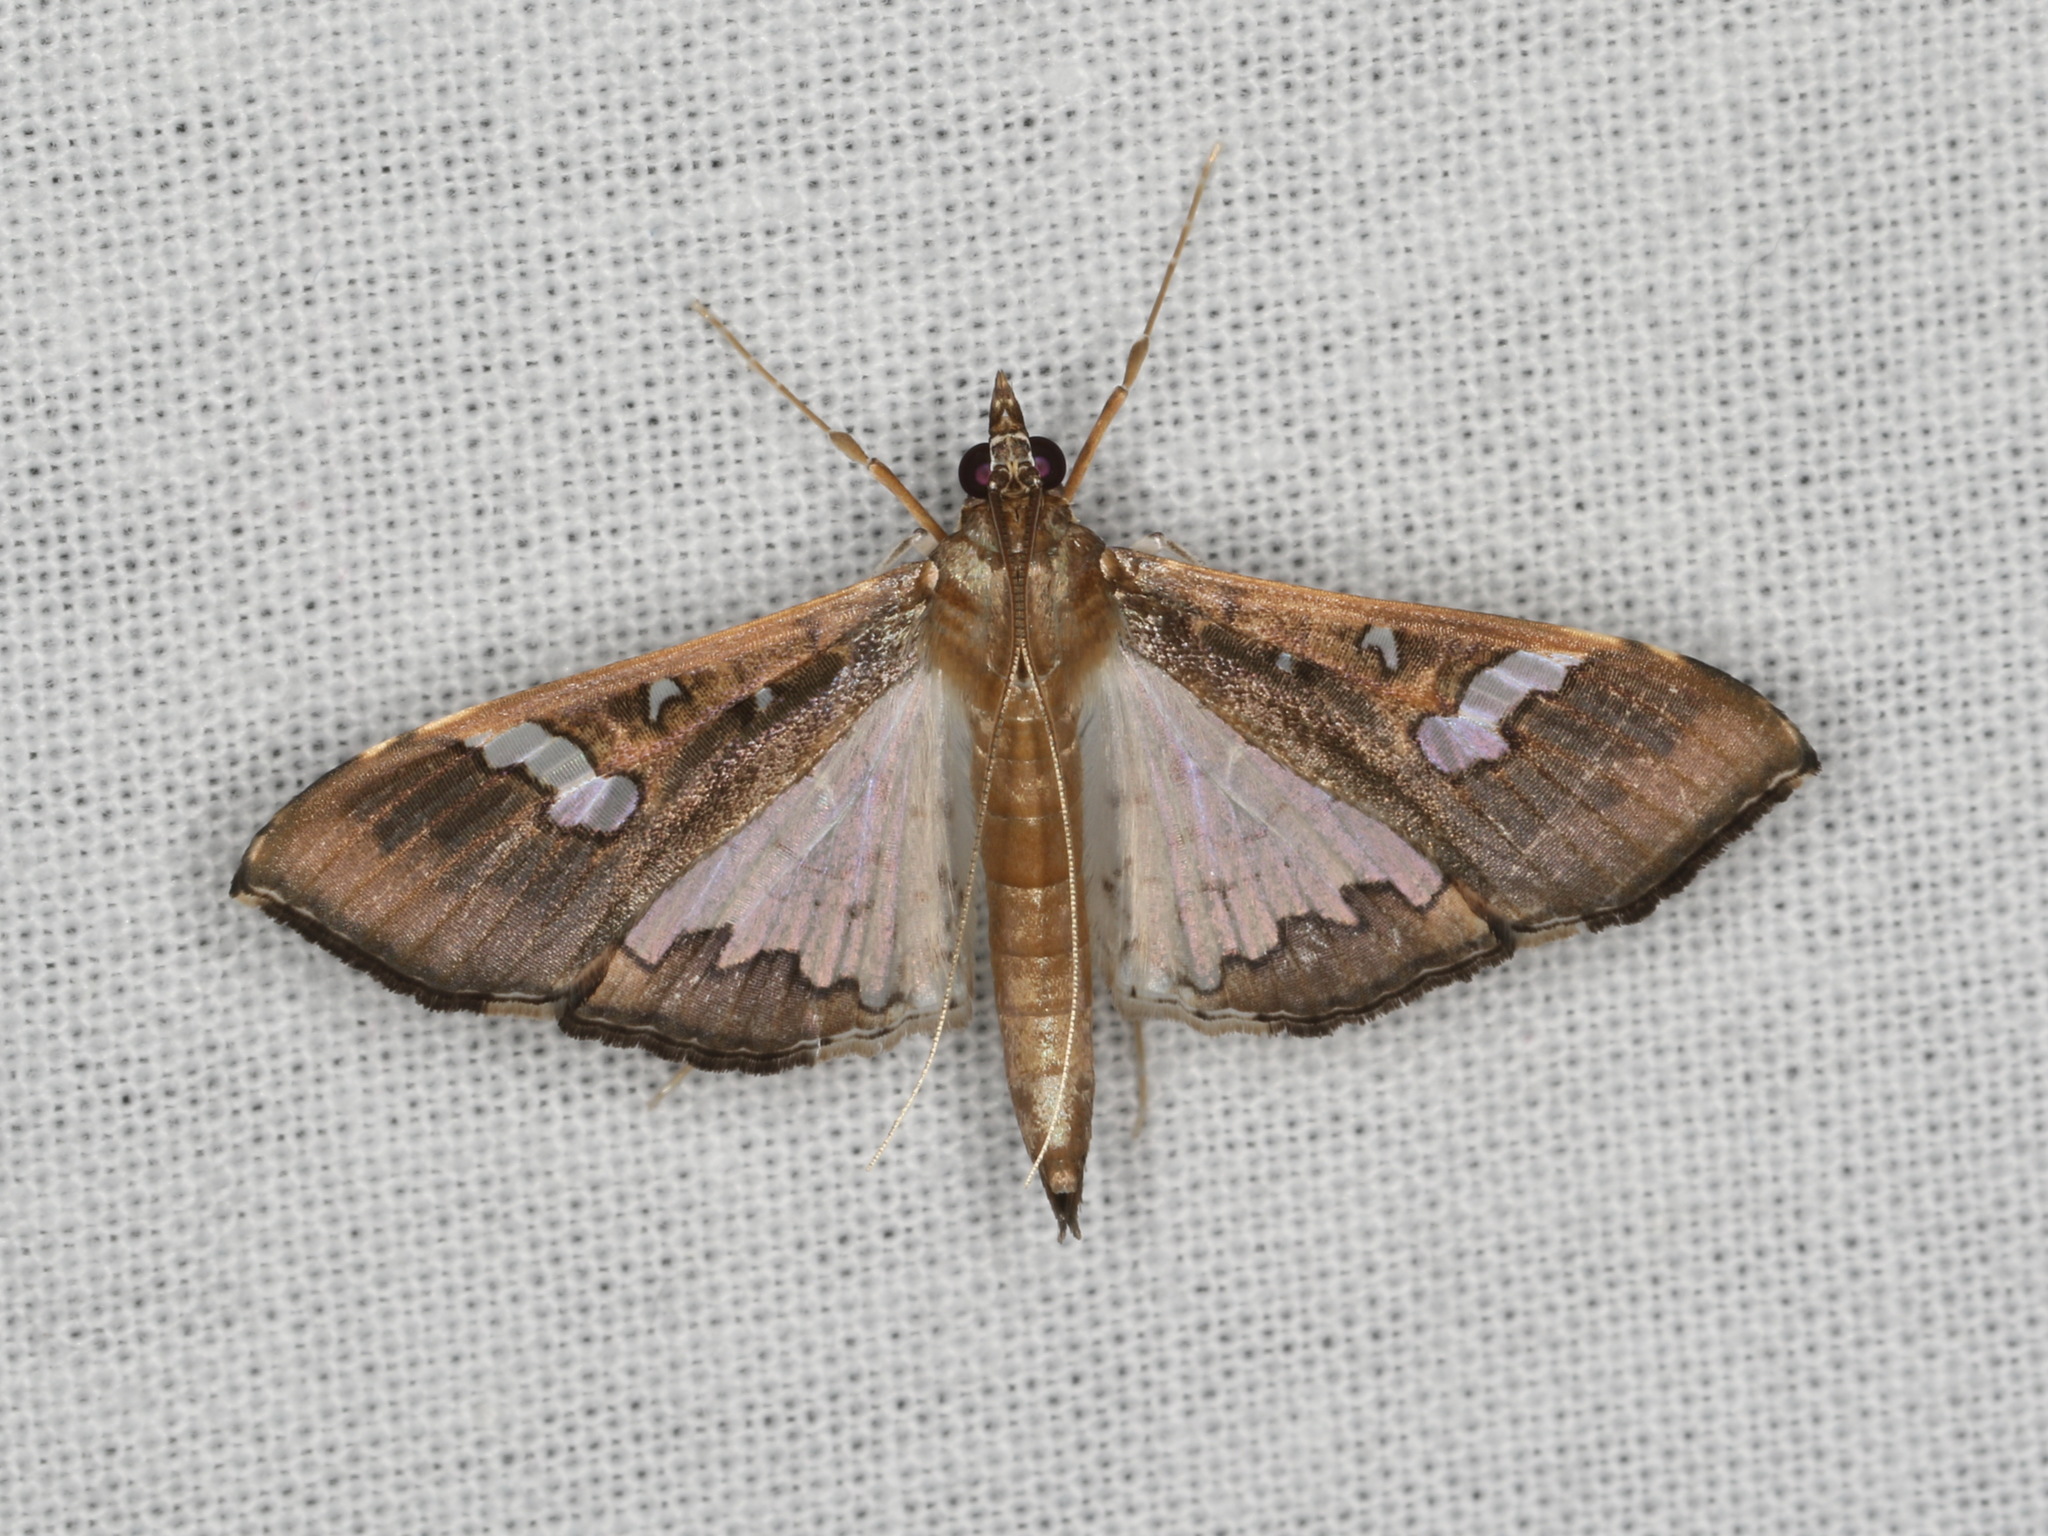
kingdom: Animalia
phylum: Arthropoda
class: Insecta
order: Lepidoptera
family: Crambidae
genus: Maruca
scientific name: Maruca vitrata
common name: Maruca pod borer
